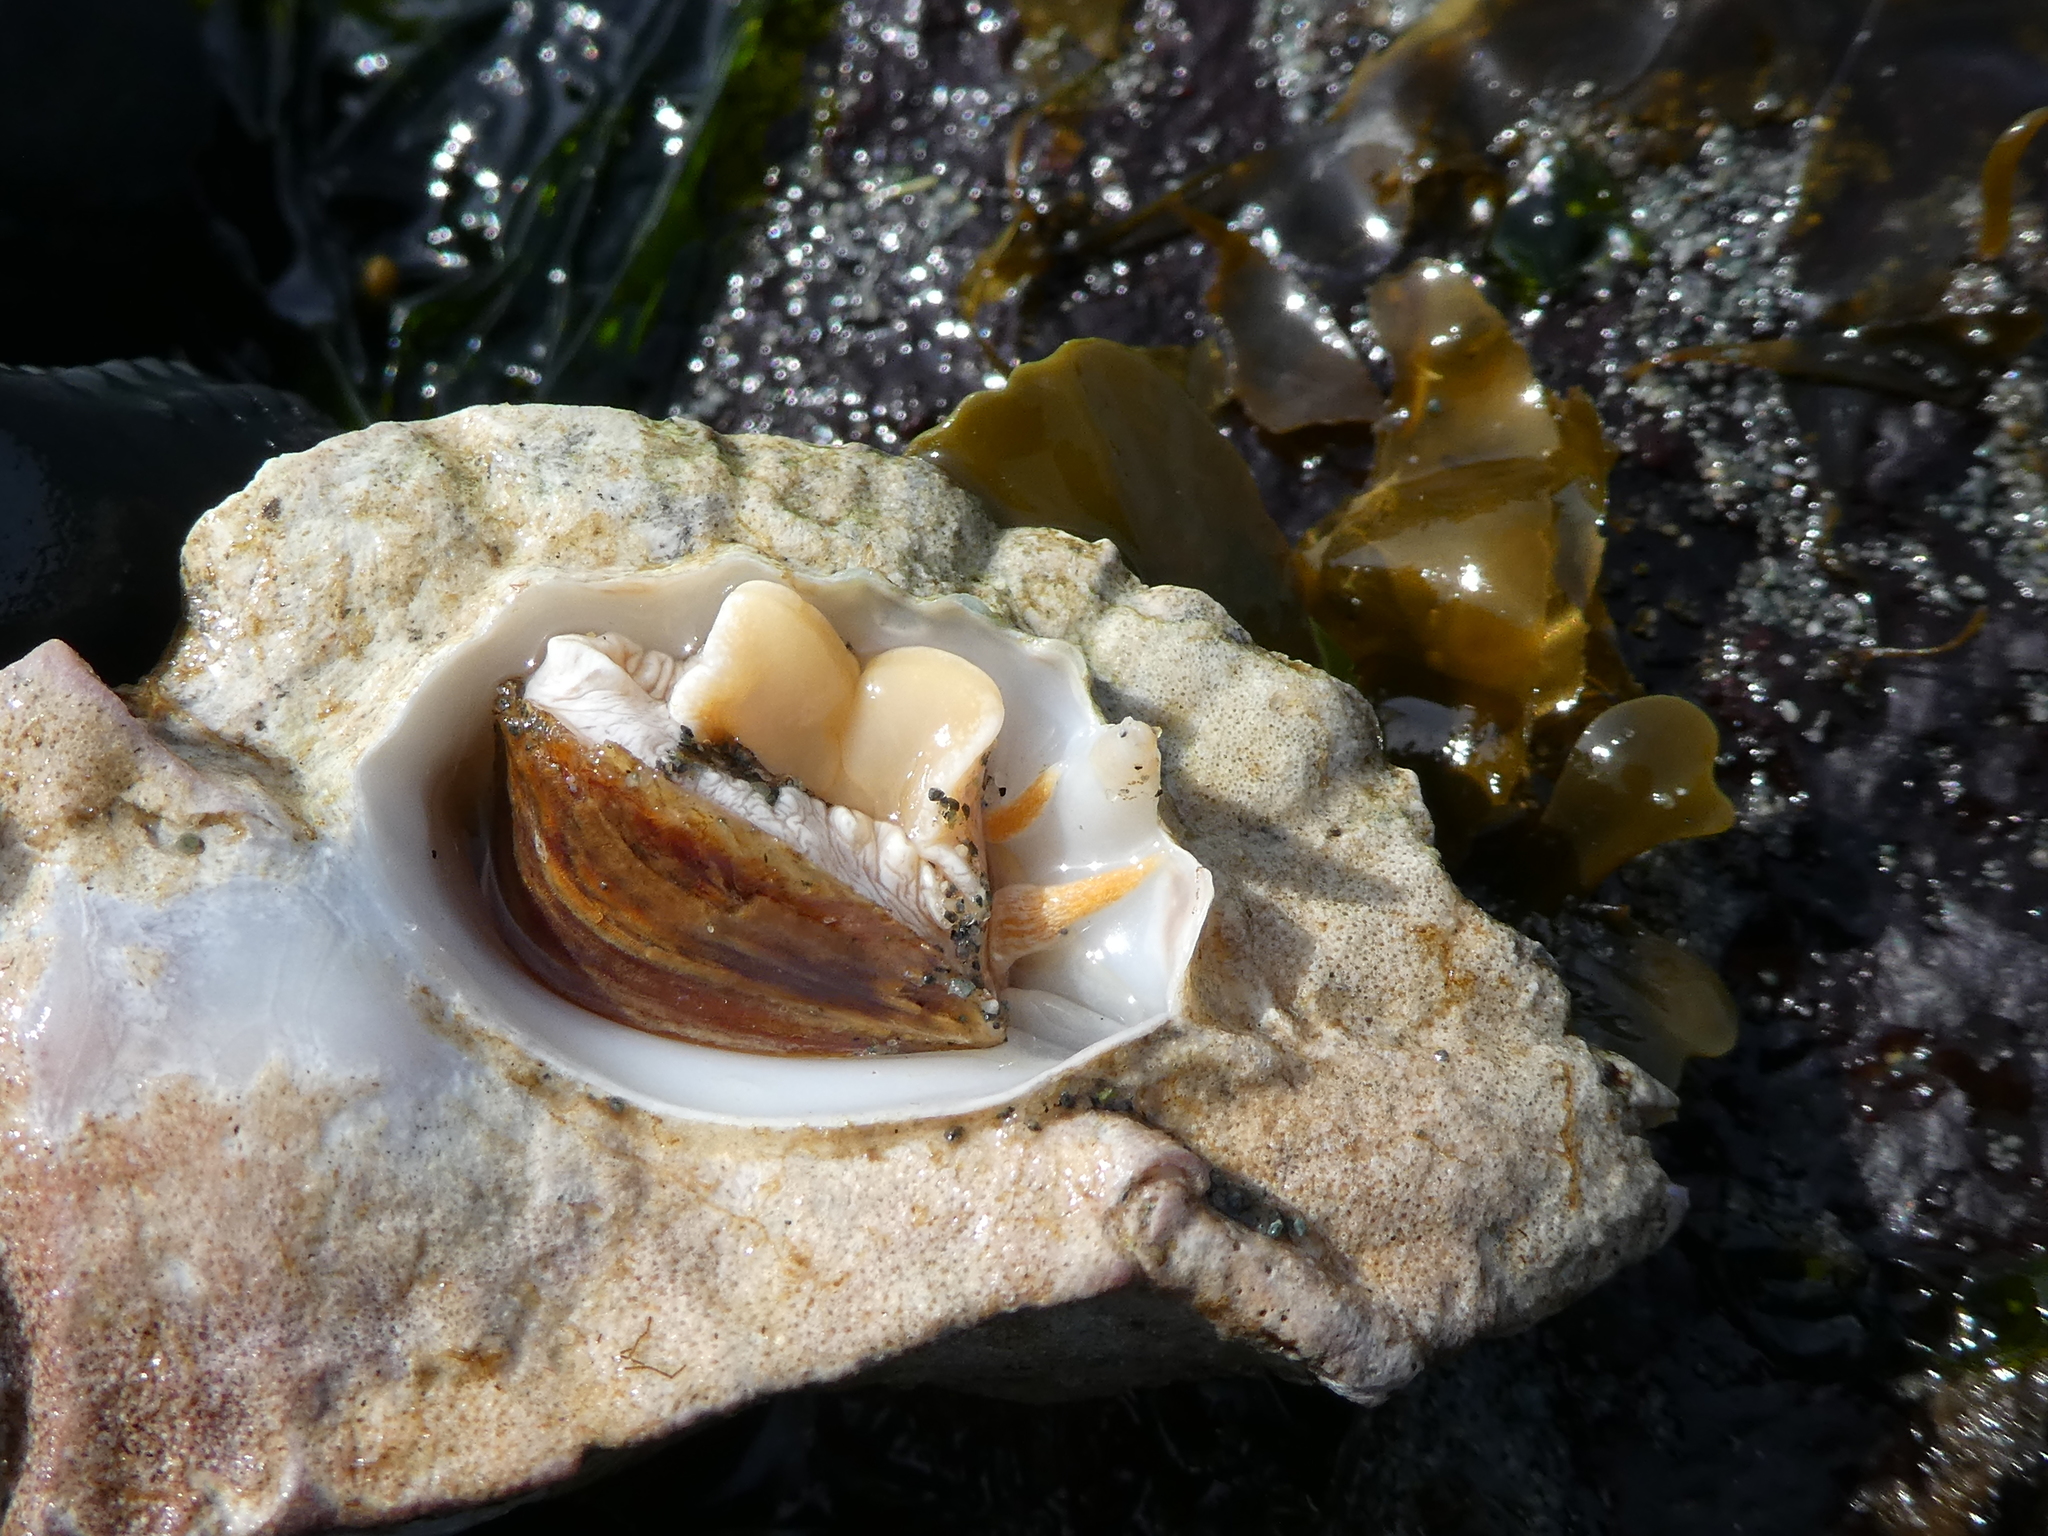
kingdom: Animalia
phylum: Mollusca
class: Gastropoda
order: Neogastropoda
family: Muricidae
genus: Ceratostoma
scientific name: Ceratostoma foliatum
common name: Foliate thorn purpura
